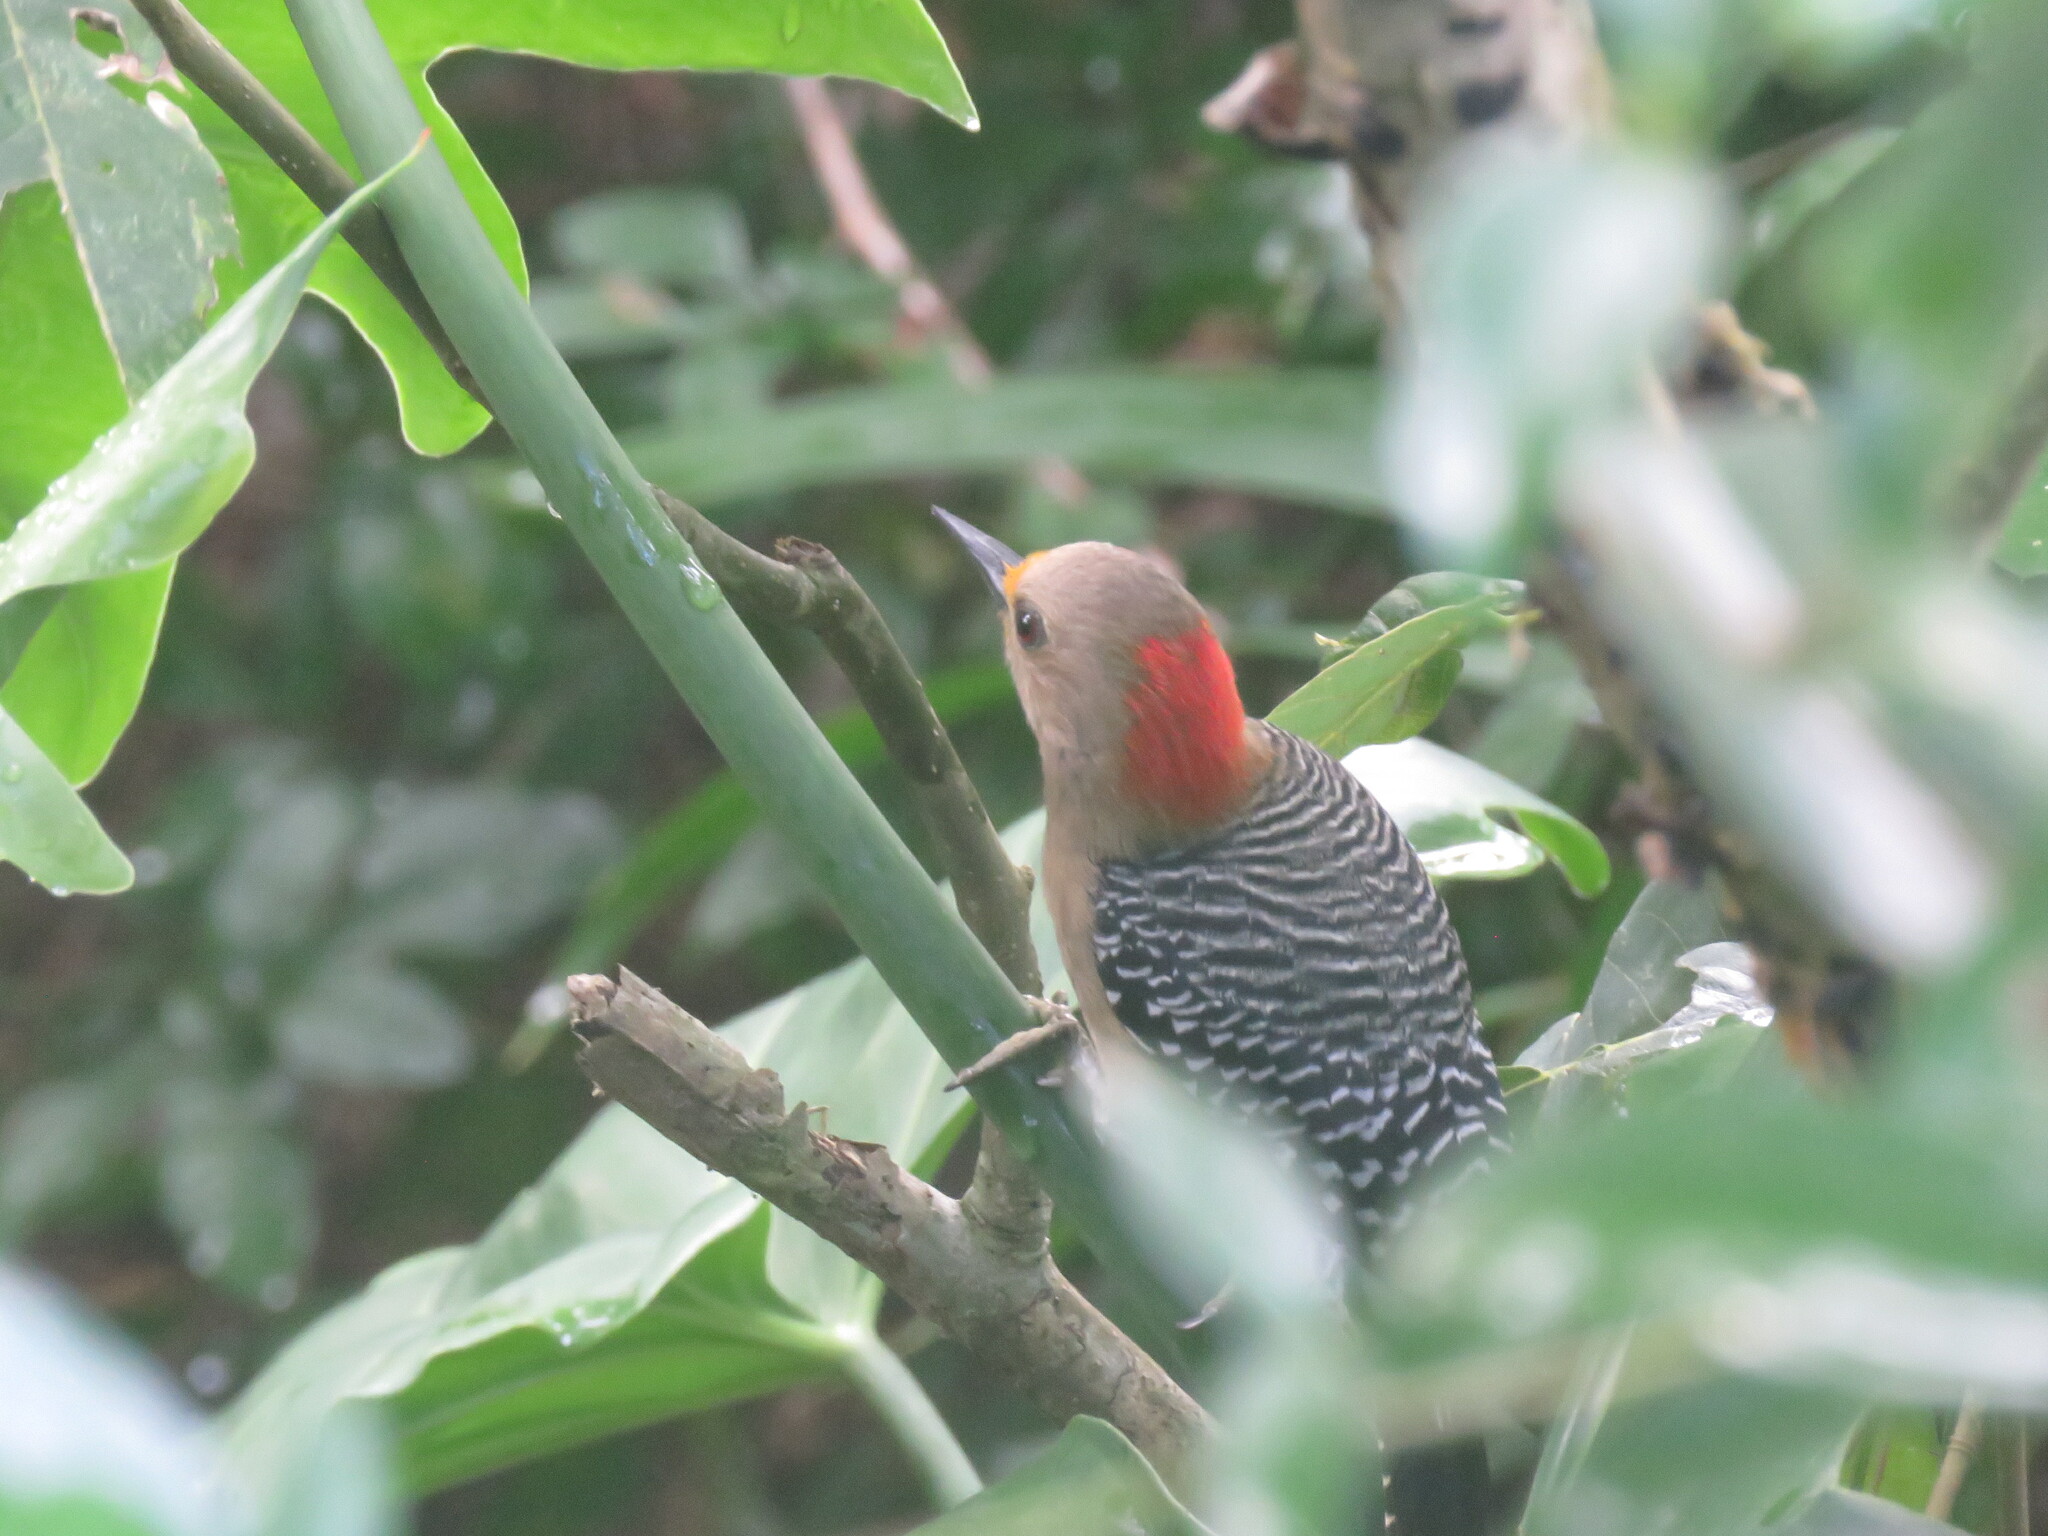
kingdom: Animalia
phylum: Chordata
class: Aves
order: Piciformes
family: Picidae
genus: Melanerpes
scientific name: Melanerpes pygmaeus
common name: Yucatan woodpecker
